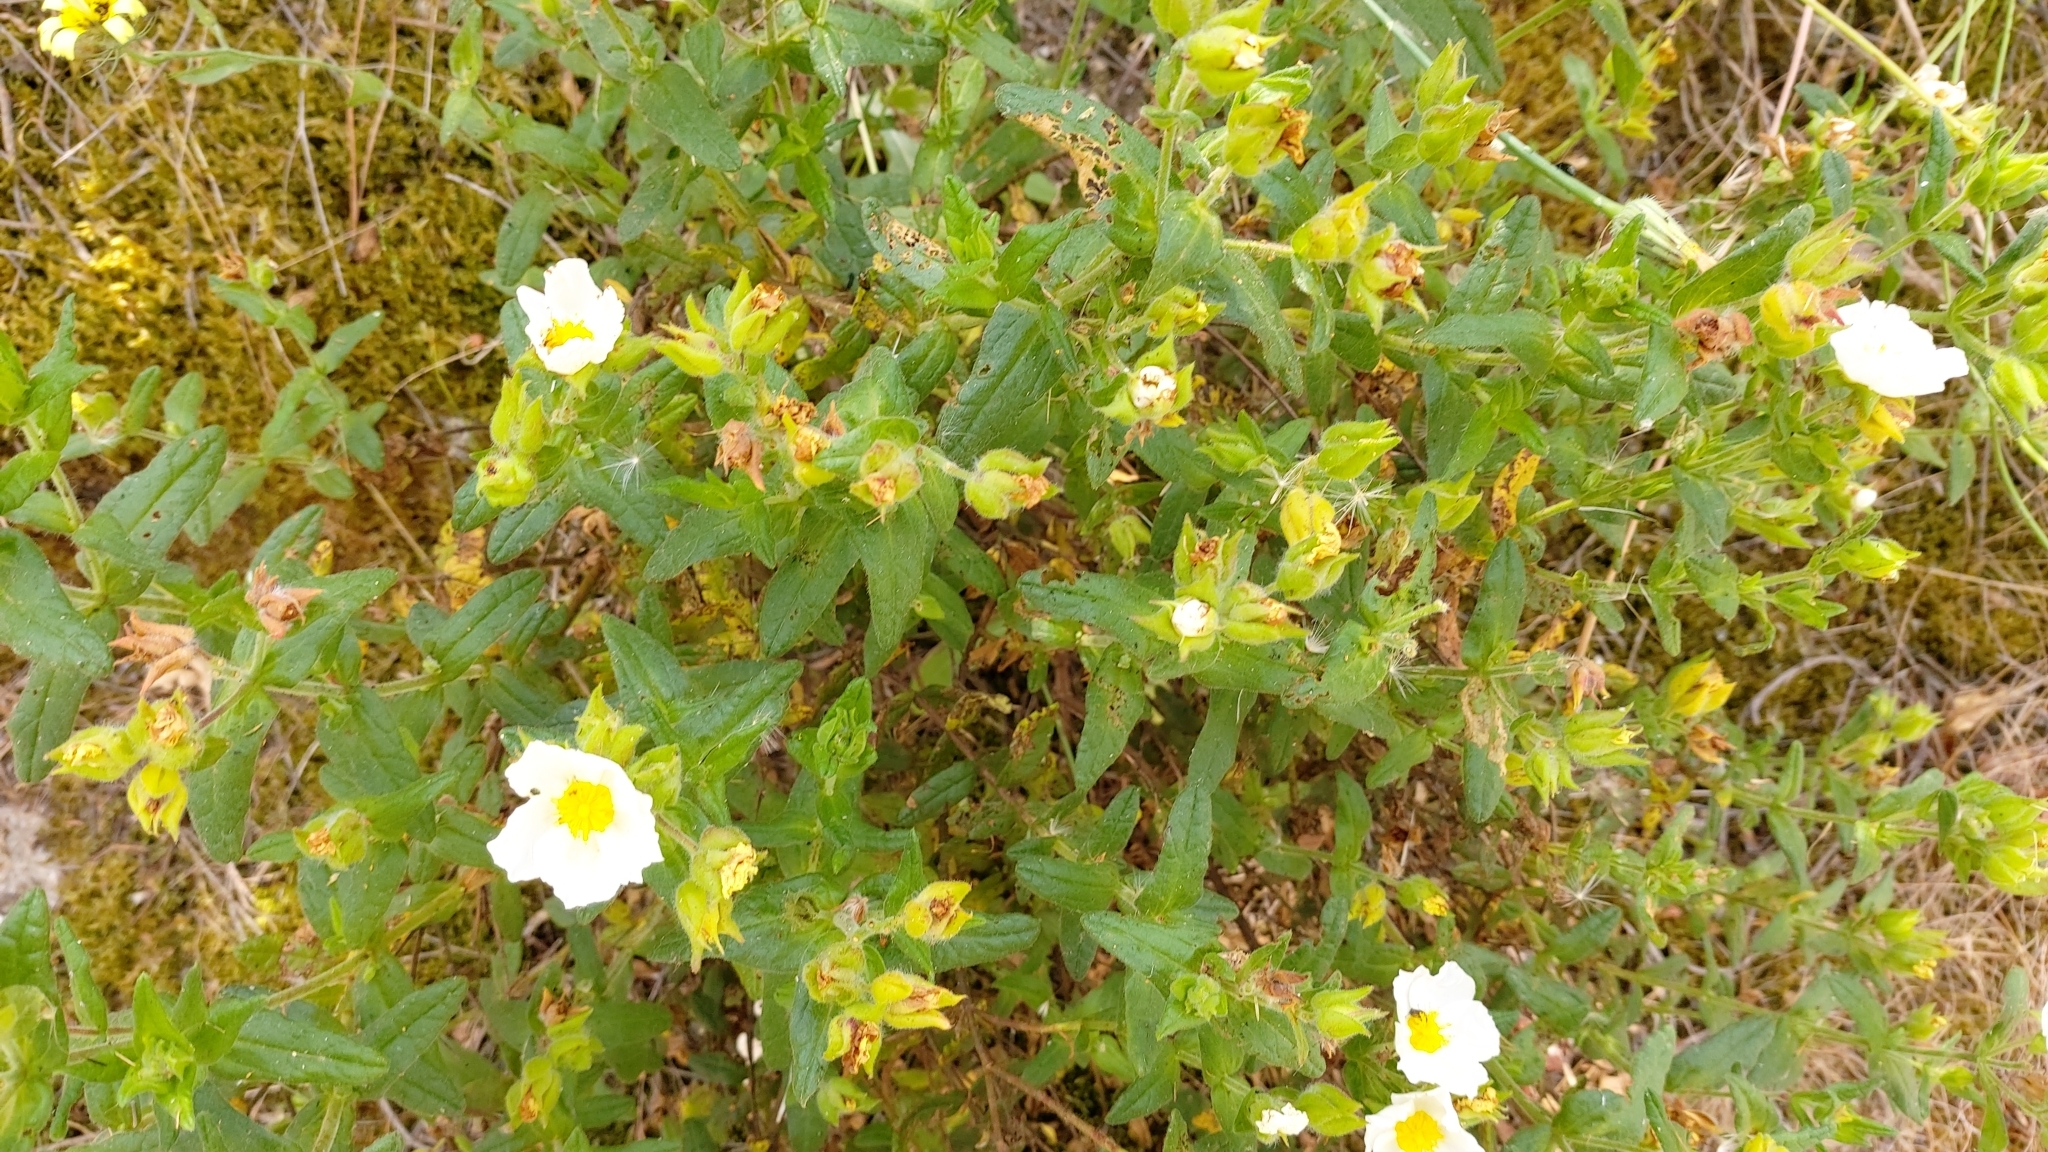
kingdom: Plantae
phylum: Tracheophyta
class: Magnoliopsida
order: Malvales
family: Cistaceae
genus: Cistus
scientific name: Cistus inflatus
